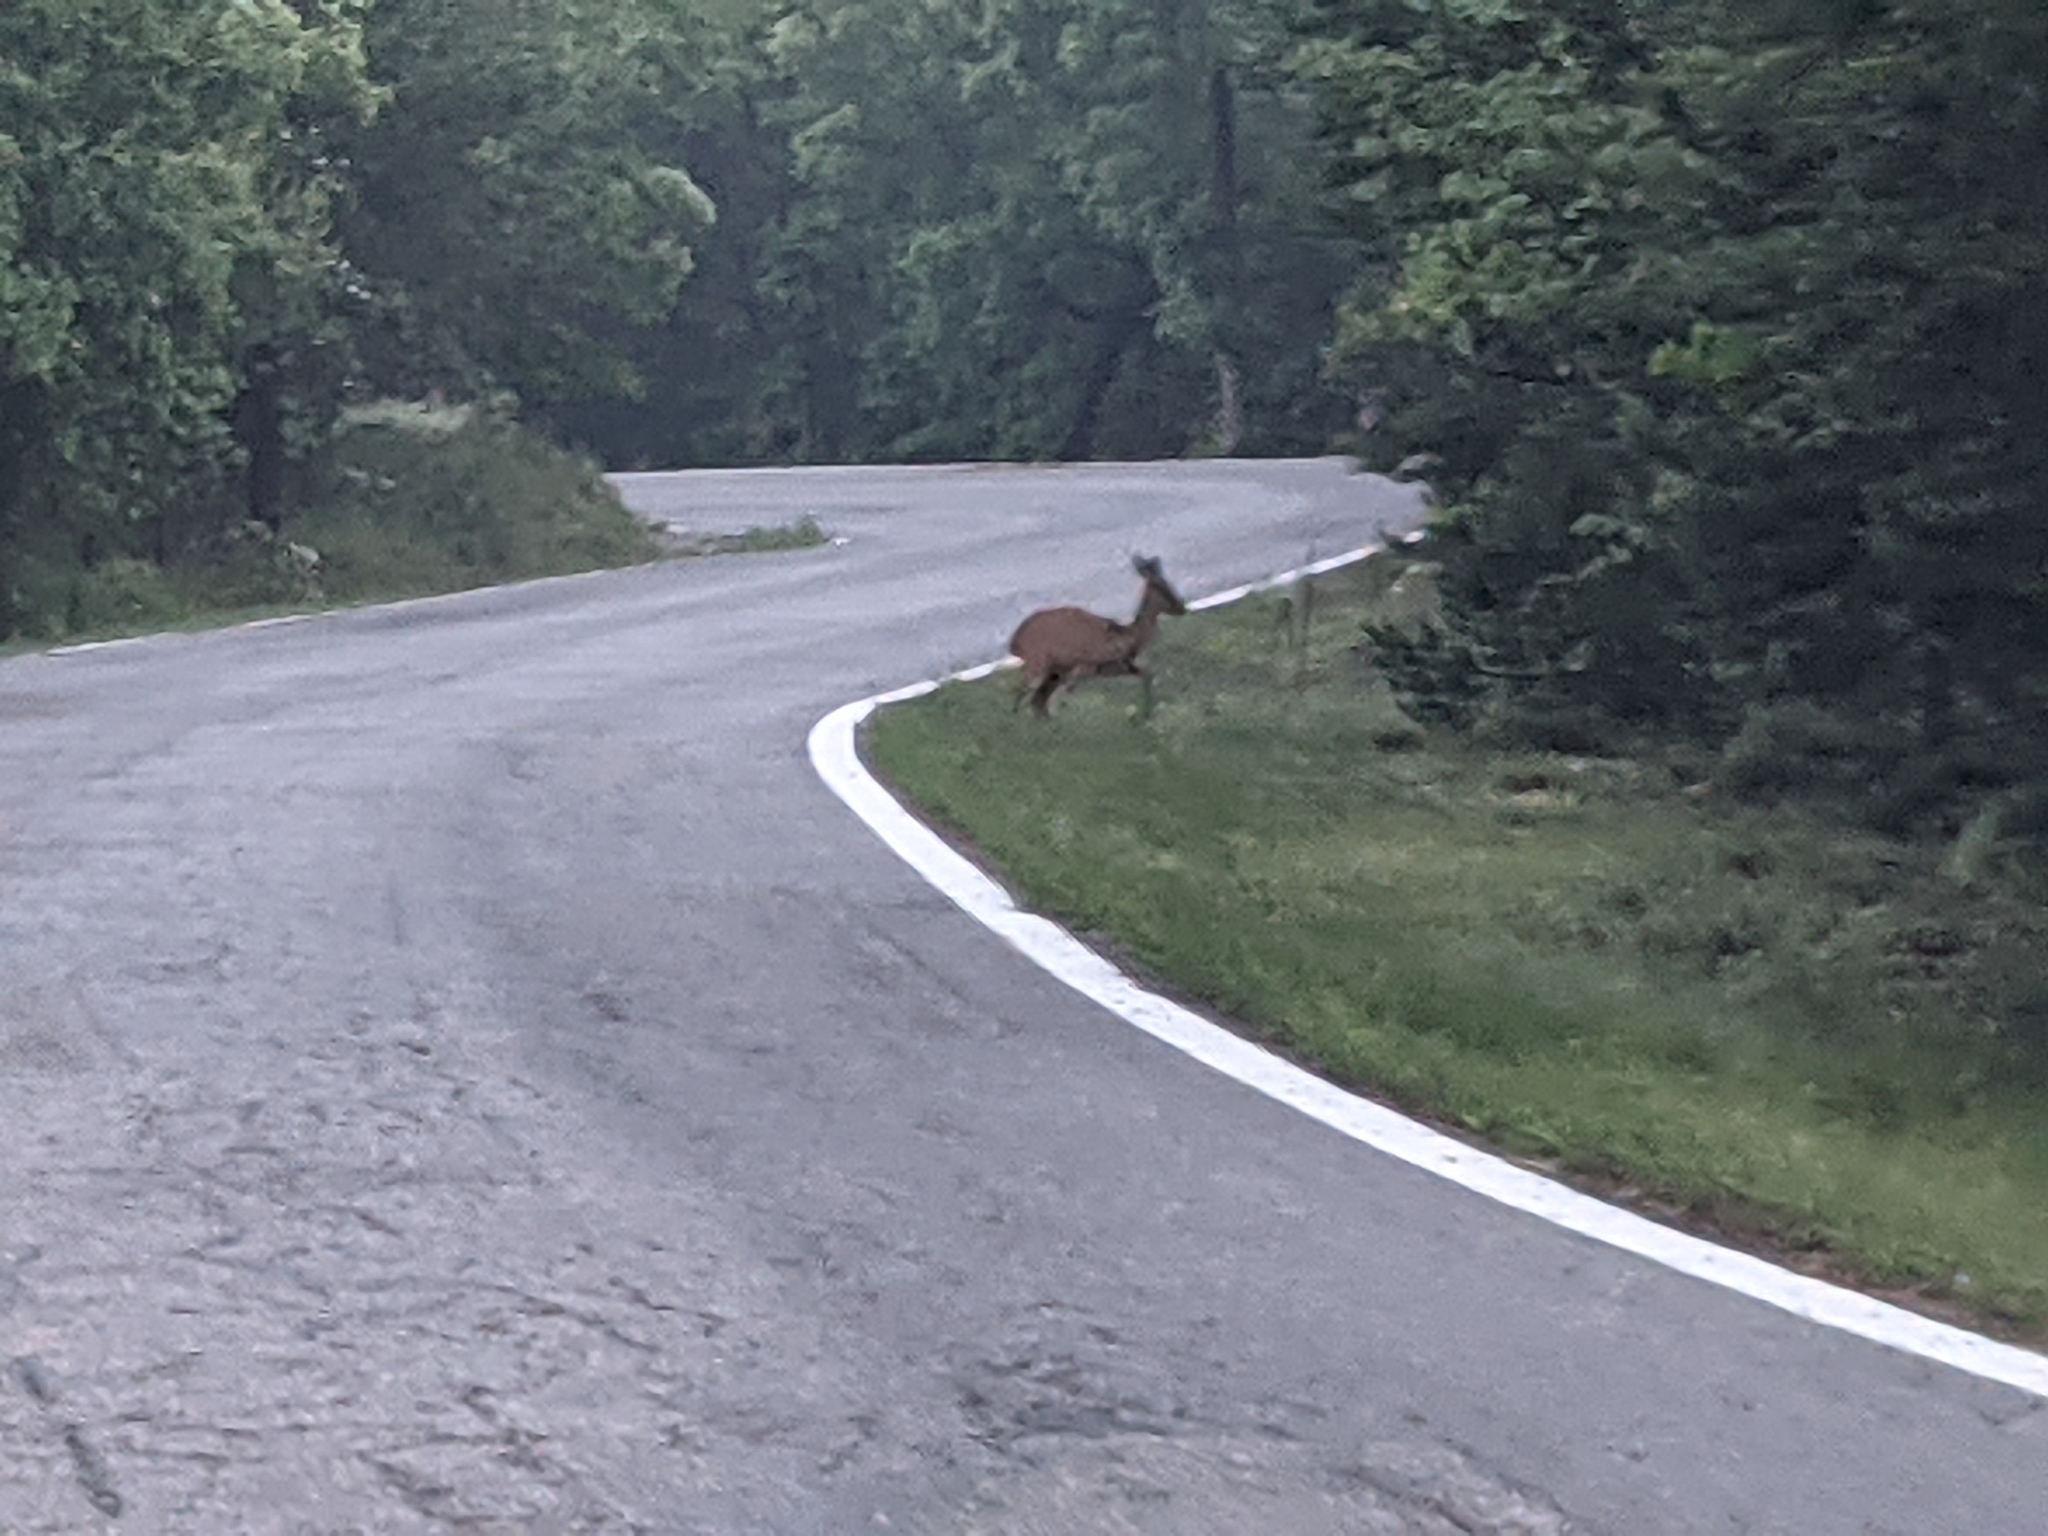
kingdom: Animalia
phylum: Chordata
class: Mammalia
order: Artiodactyla
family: Cervidae
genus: Capreolus
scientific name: Capreolus capreolus
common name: Western roe deer
